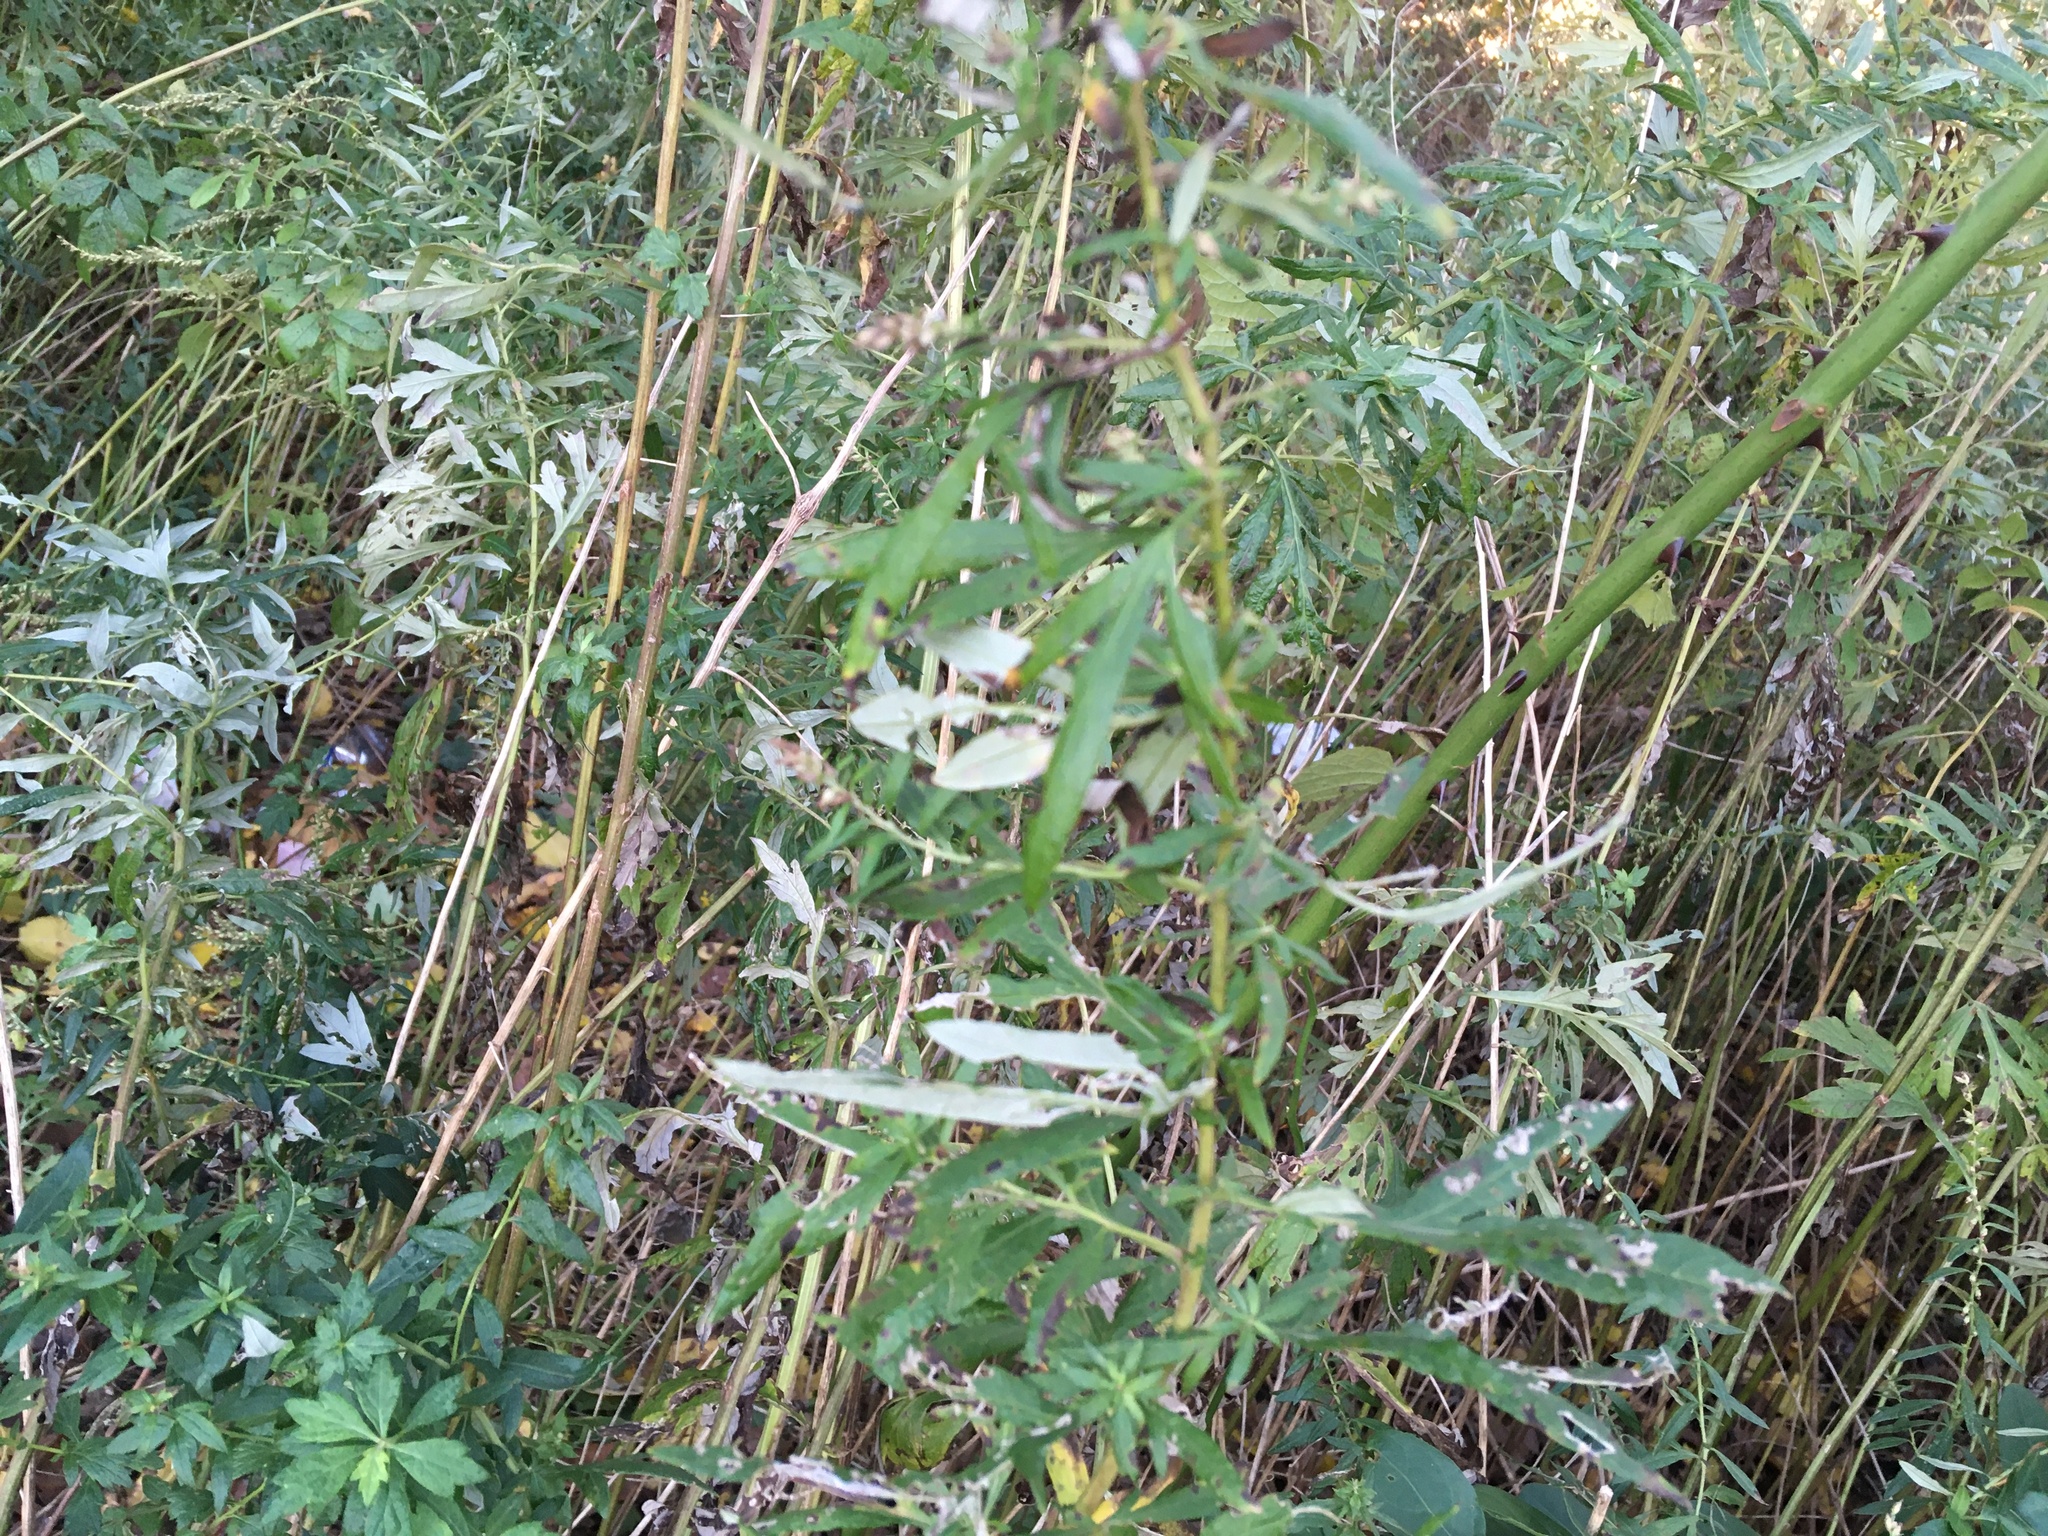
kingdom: Plantae
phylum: Tracheophyta
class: Magnoliopsida
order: Asterales
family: Asteraceae
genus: Artemisia
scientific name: Artemisia vulgaris
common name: Mugwort
